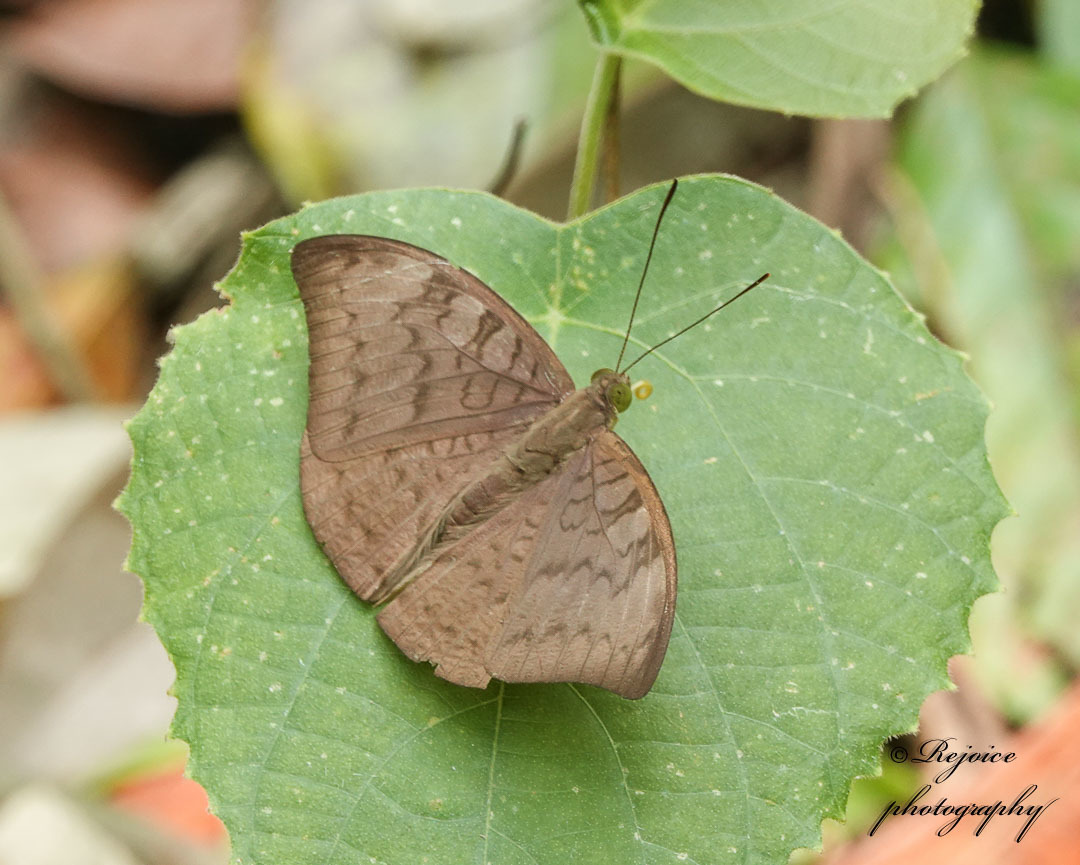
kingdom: Animalia
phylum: Arthropoda
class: Insecta
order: Lepidoptera
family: Nymphalidae
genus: Tanaecia
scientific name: Tanaecia jahnu
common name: Plain earl
